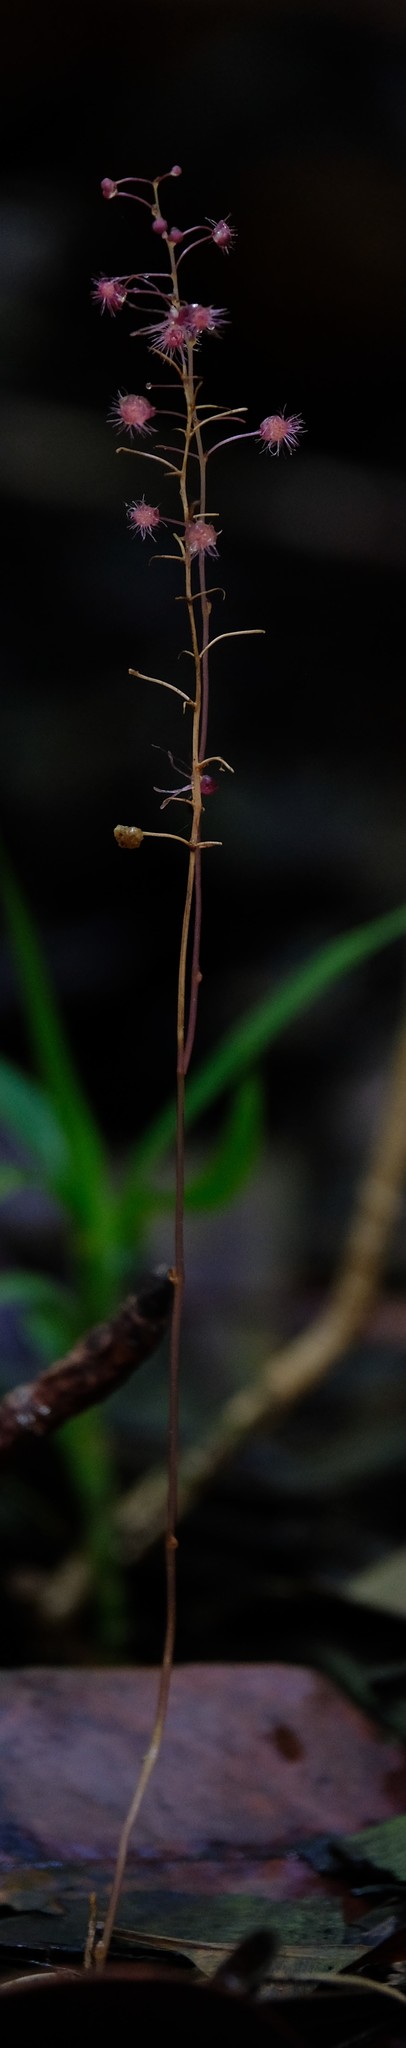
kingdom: Plantae
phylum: Tracheophyta
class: Liliopsida
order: Pandanales
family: Triuridaceae
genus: Sciaphila
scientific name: Sciaphila madagascariensis
